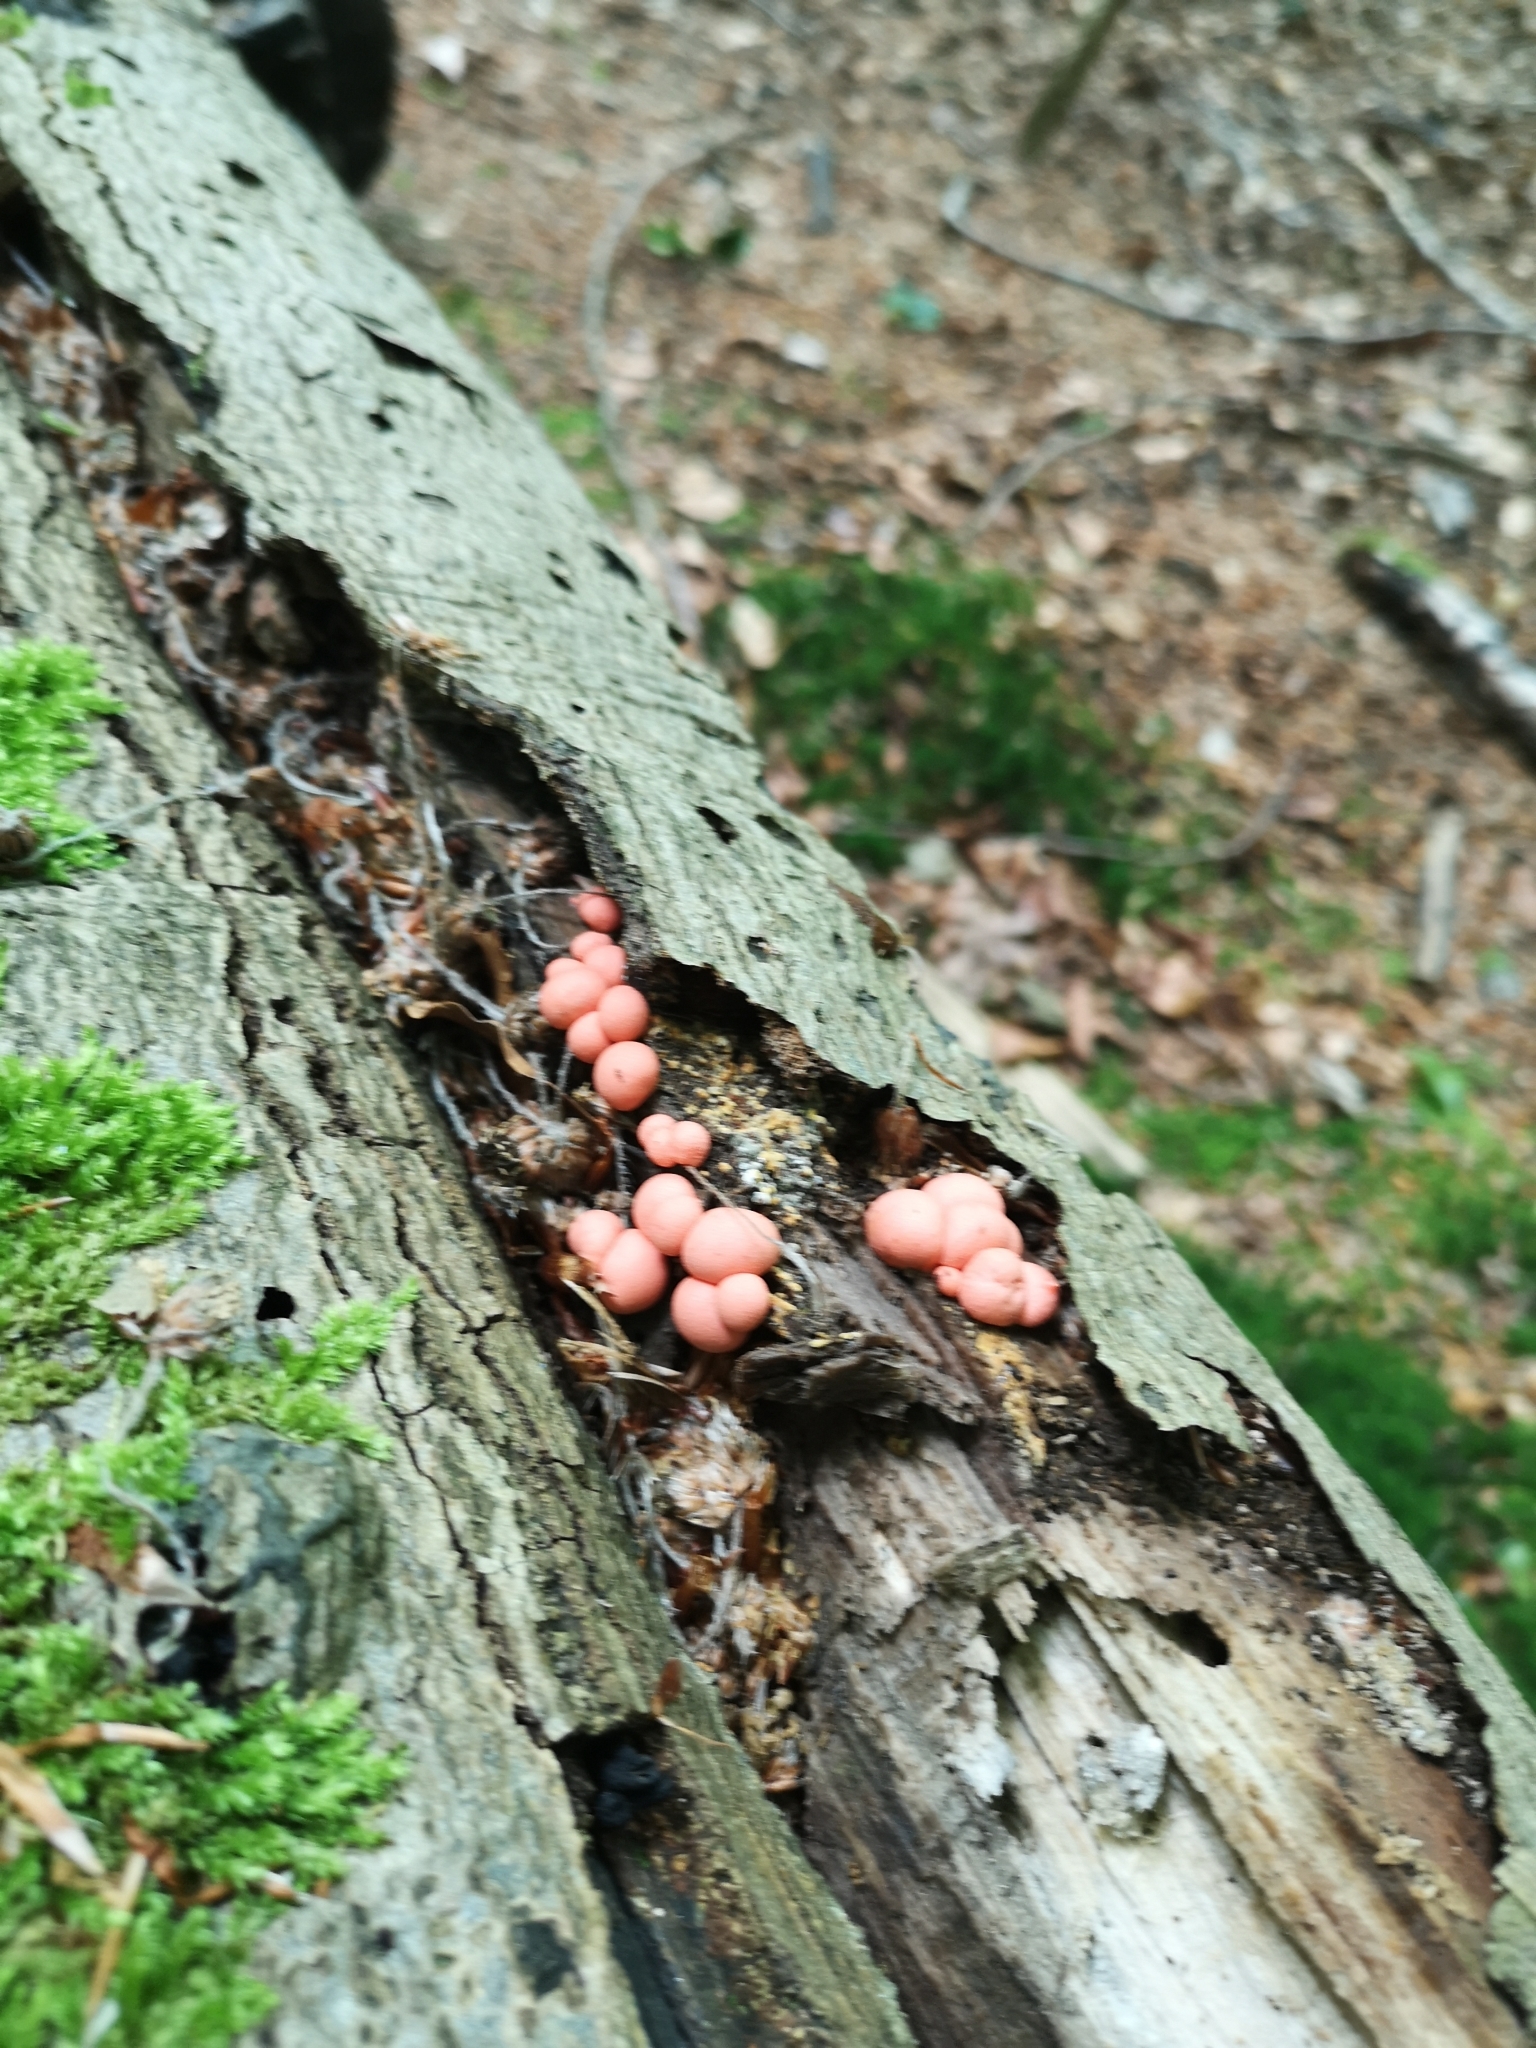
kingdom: Protozoa
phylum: Mycetozoa
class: Myxomycetes
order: Cribrariales
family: Tubiferaceae
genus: Lycogala
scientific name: Lycogala
